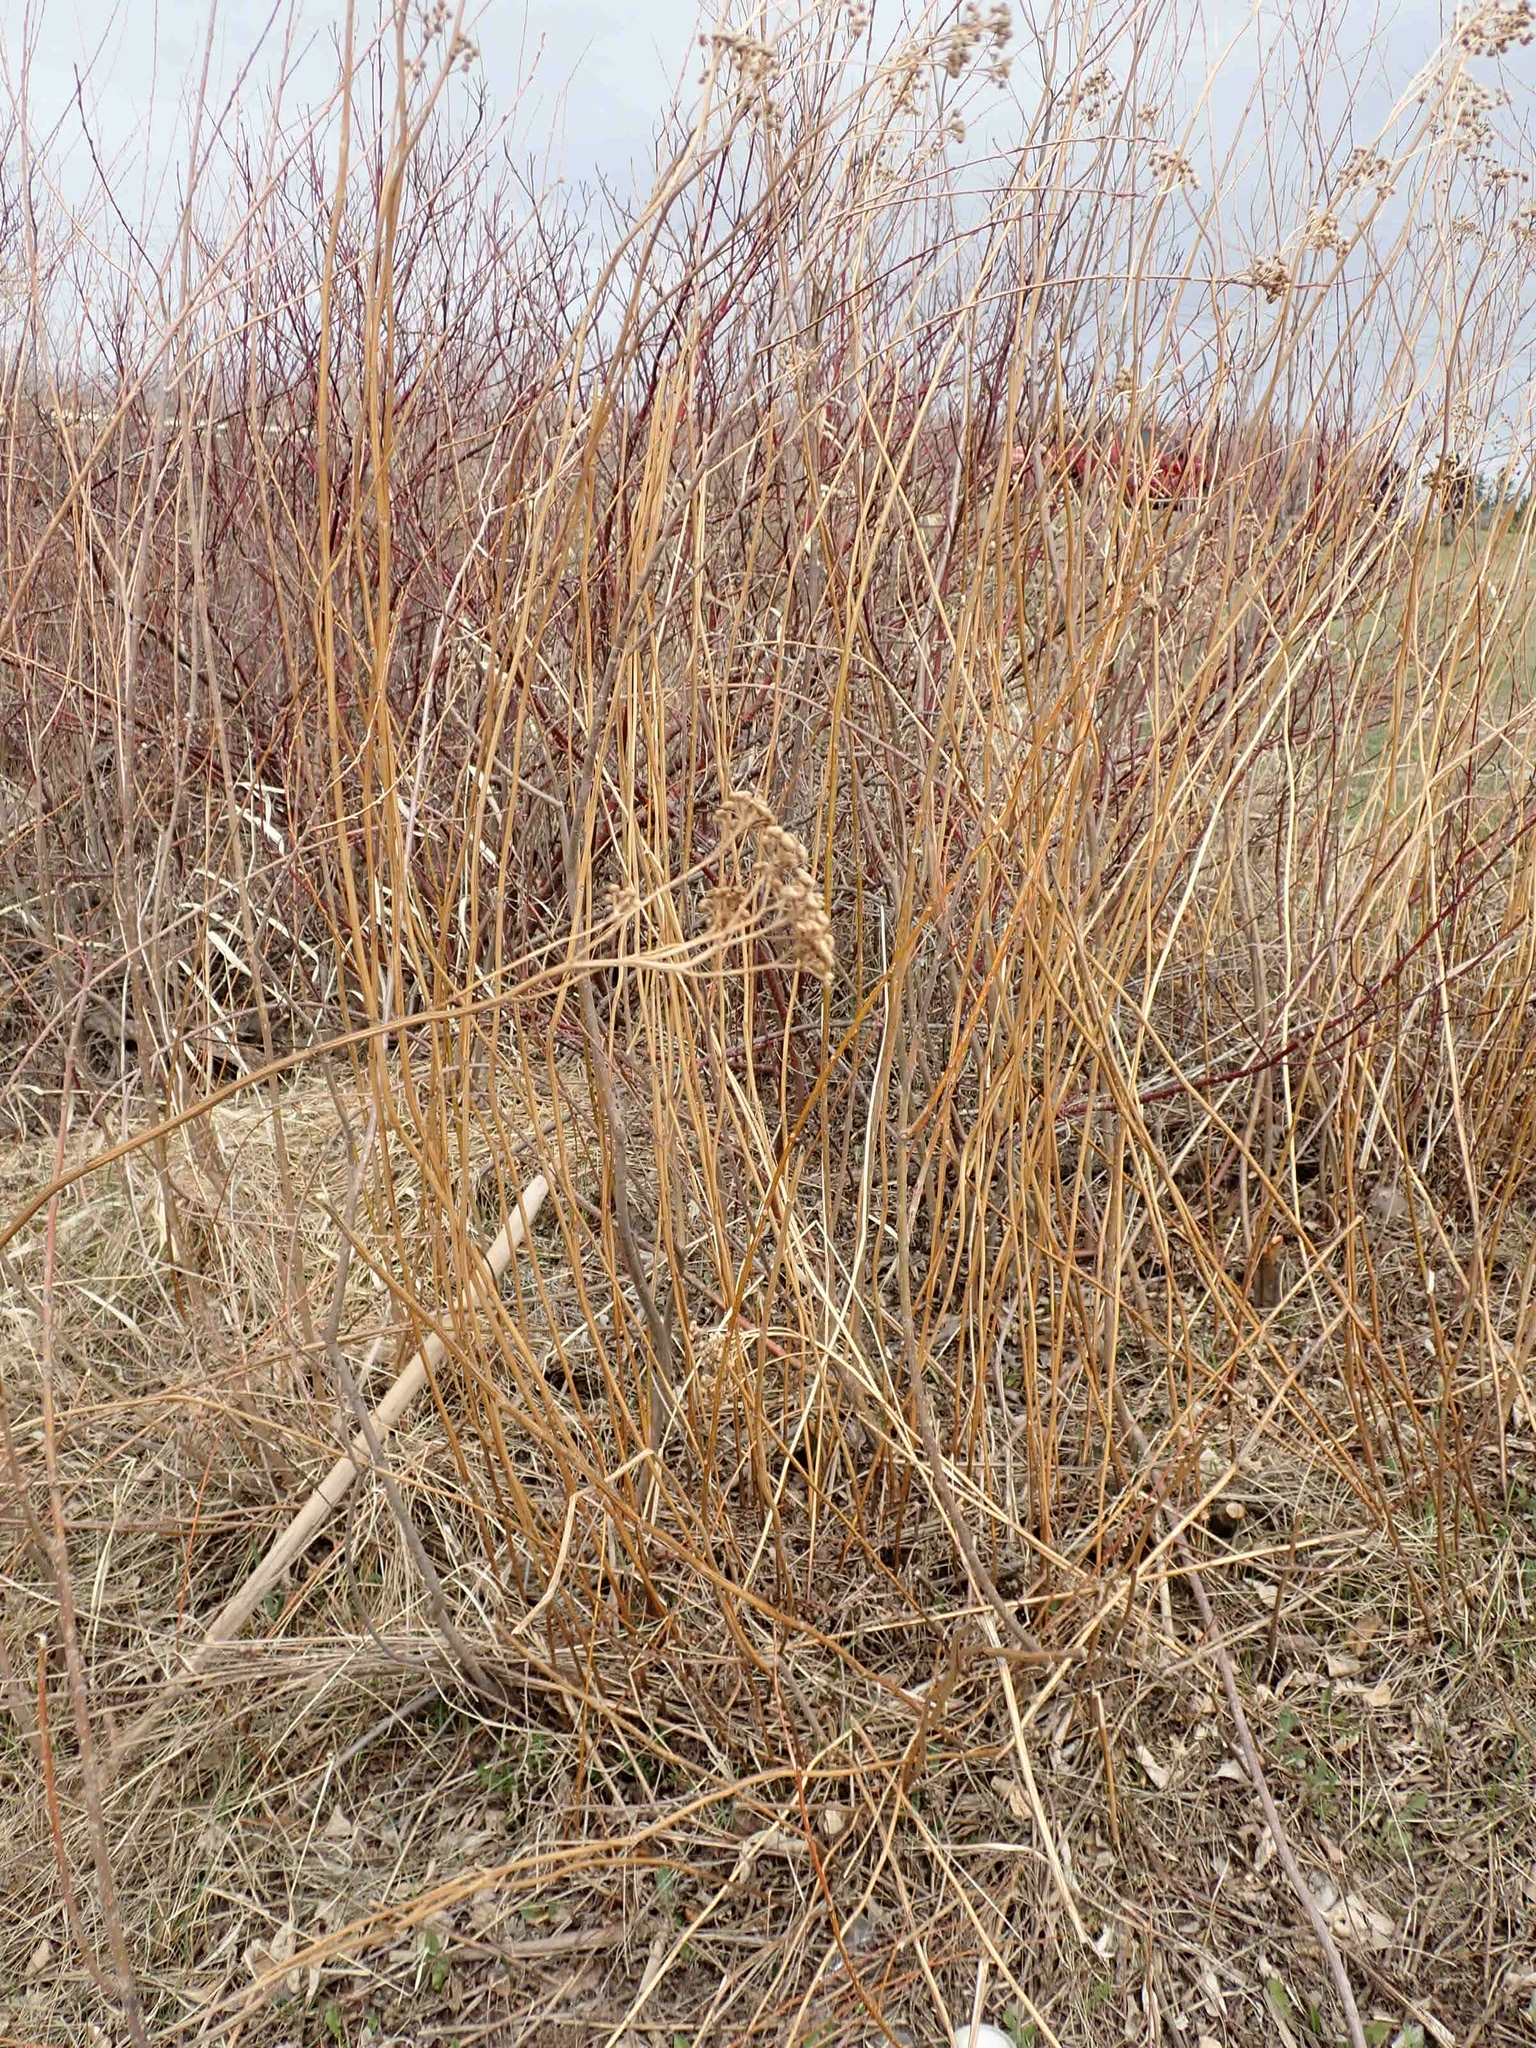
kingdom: Plantae
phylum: Tracheophyta
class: Magnoliopsida
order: Asterales
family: Asteraceae
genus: Tanacetum
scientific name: Tanacetum vulgare
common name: Common tansy
